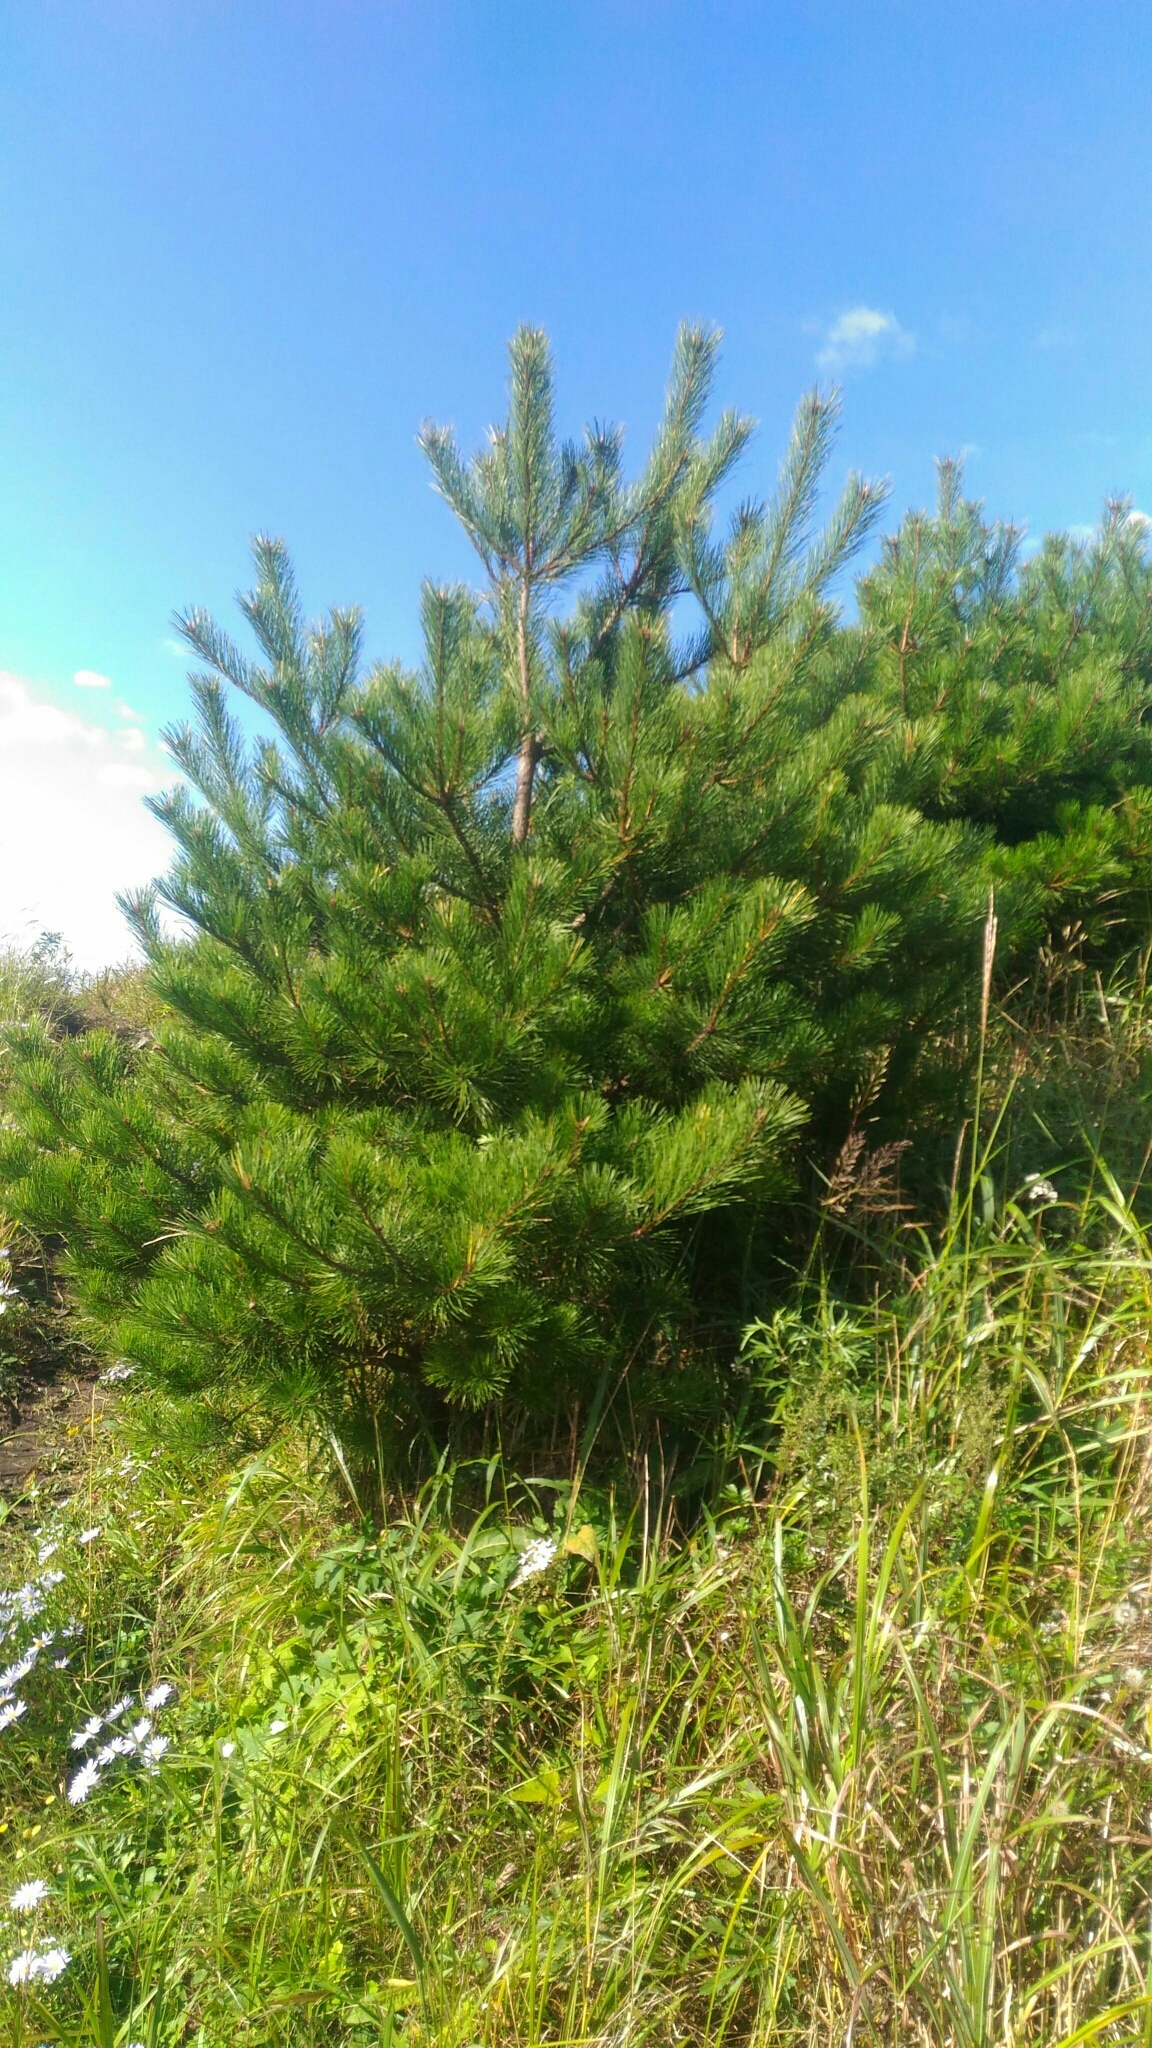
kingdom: Plantae
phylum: Tracheophyta
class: Pinopsida
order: Pinales
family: Pinaceae
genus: Pinus
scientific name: Pinus densiflora
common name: Japanese red pine
